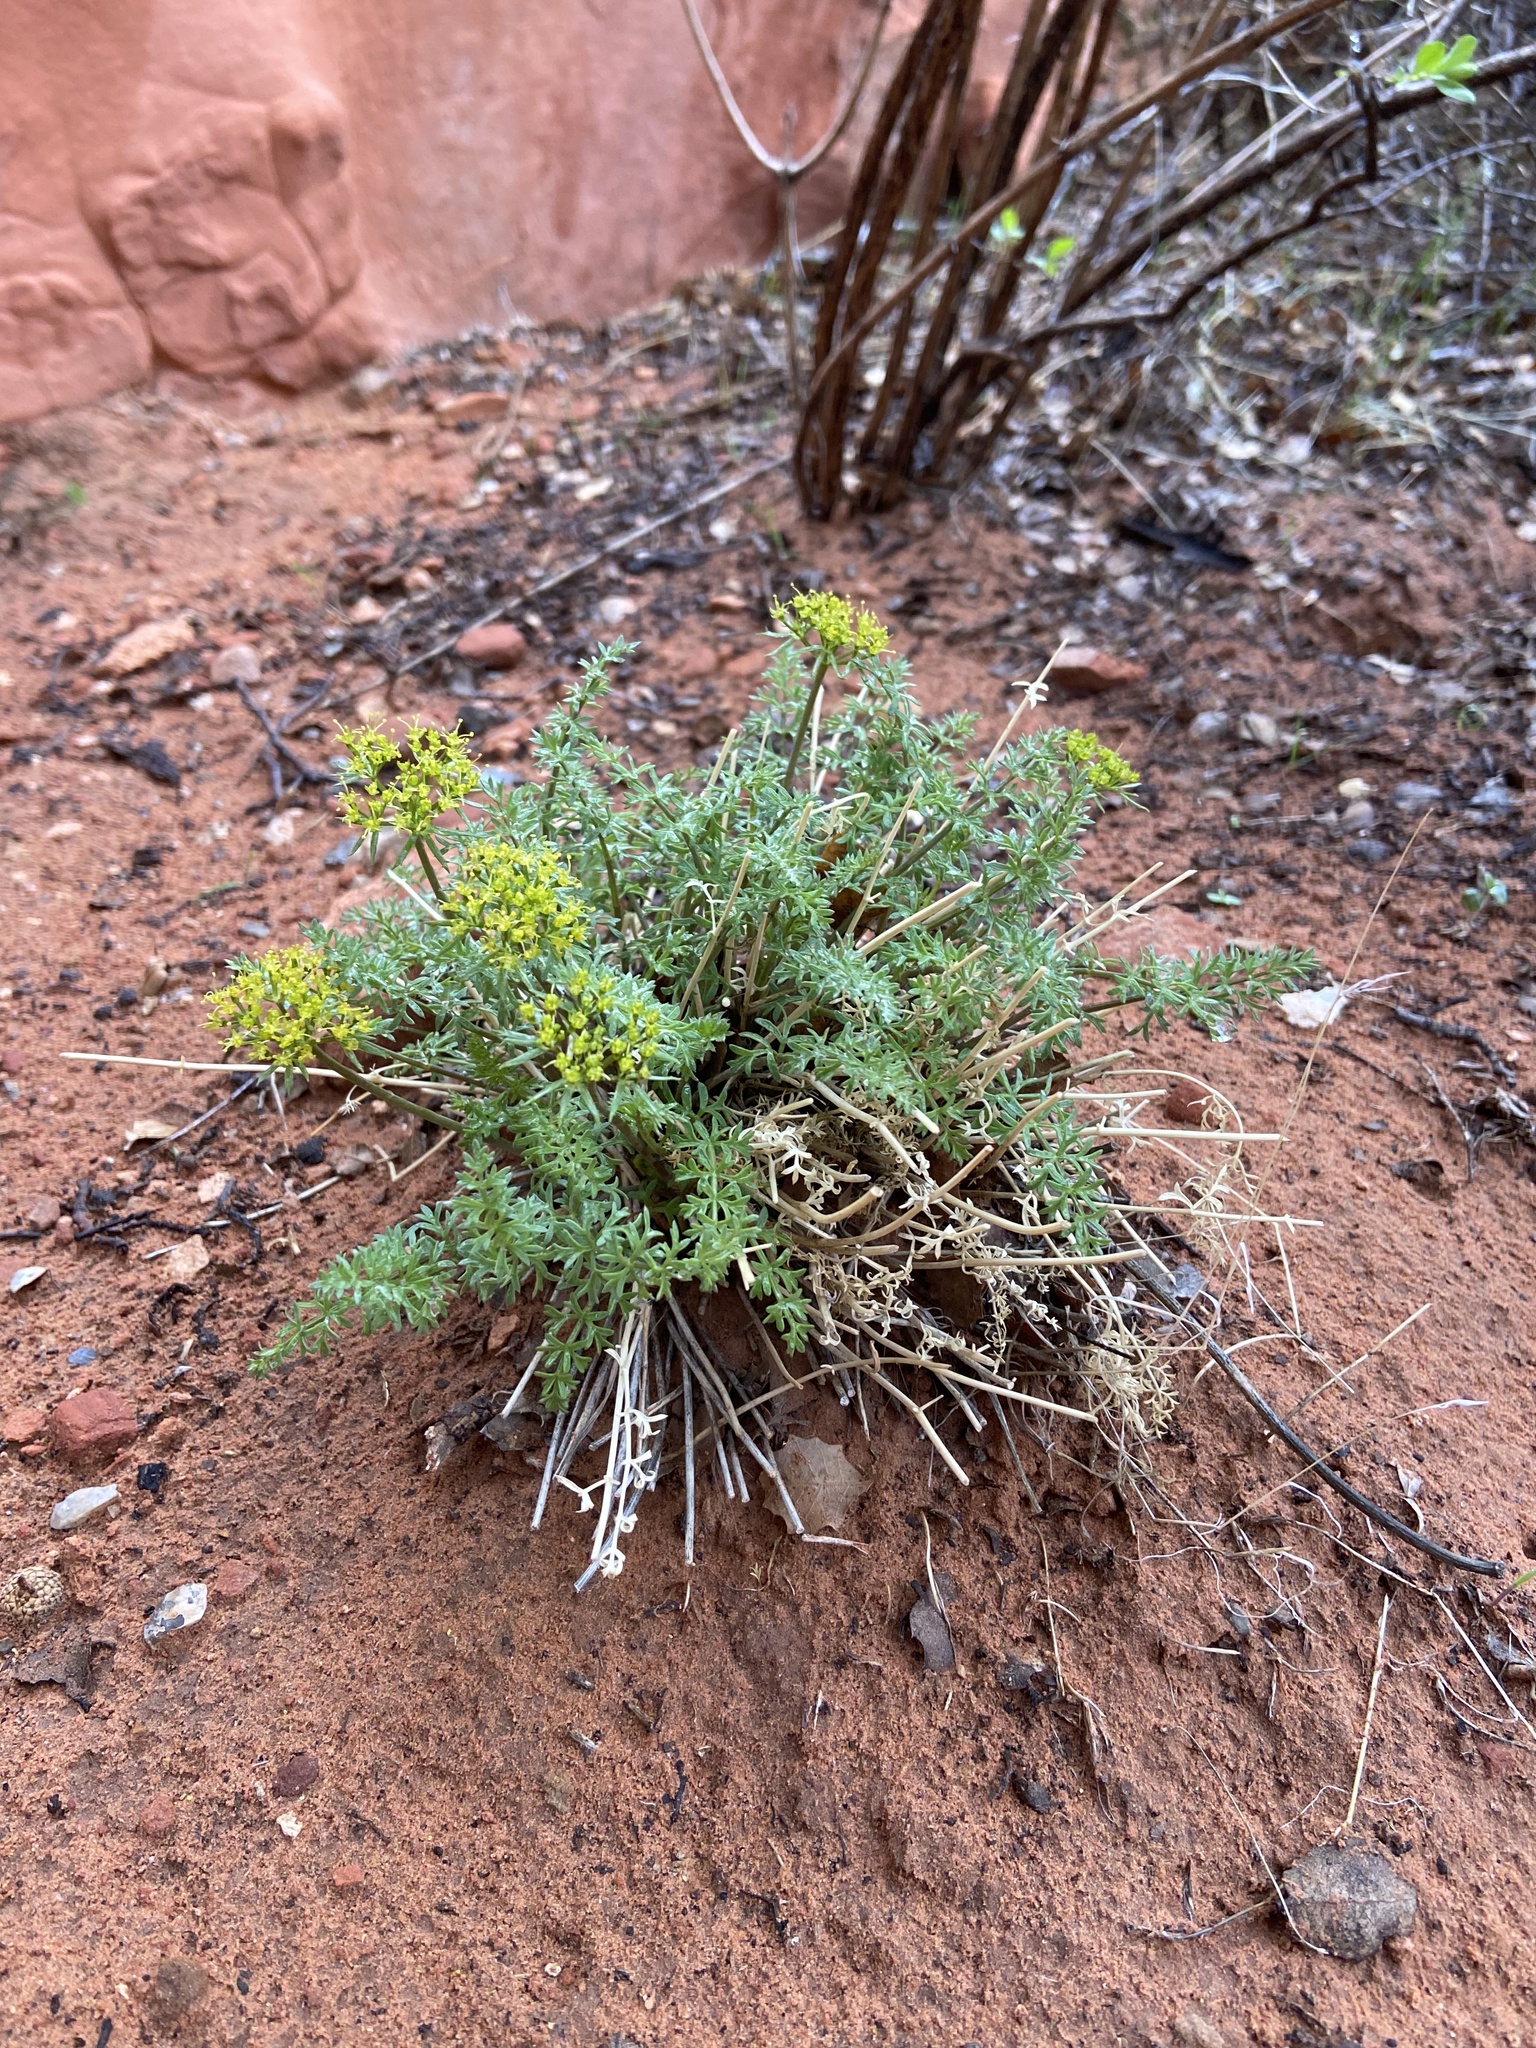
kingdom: Plantae
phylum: Tracheophyta
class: Magnoliopsida
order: Apiales
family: Apiaceae
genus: Lomatium
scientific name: Lomatium parryi
